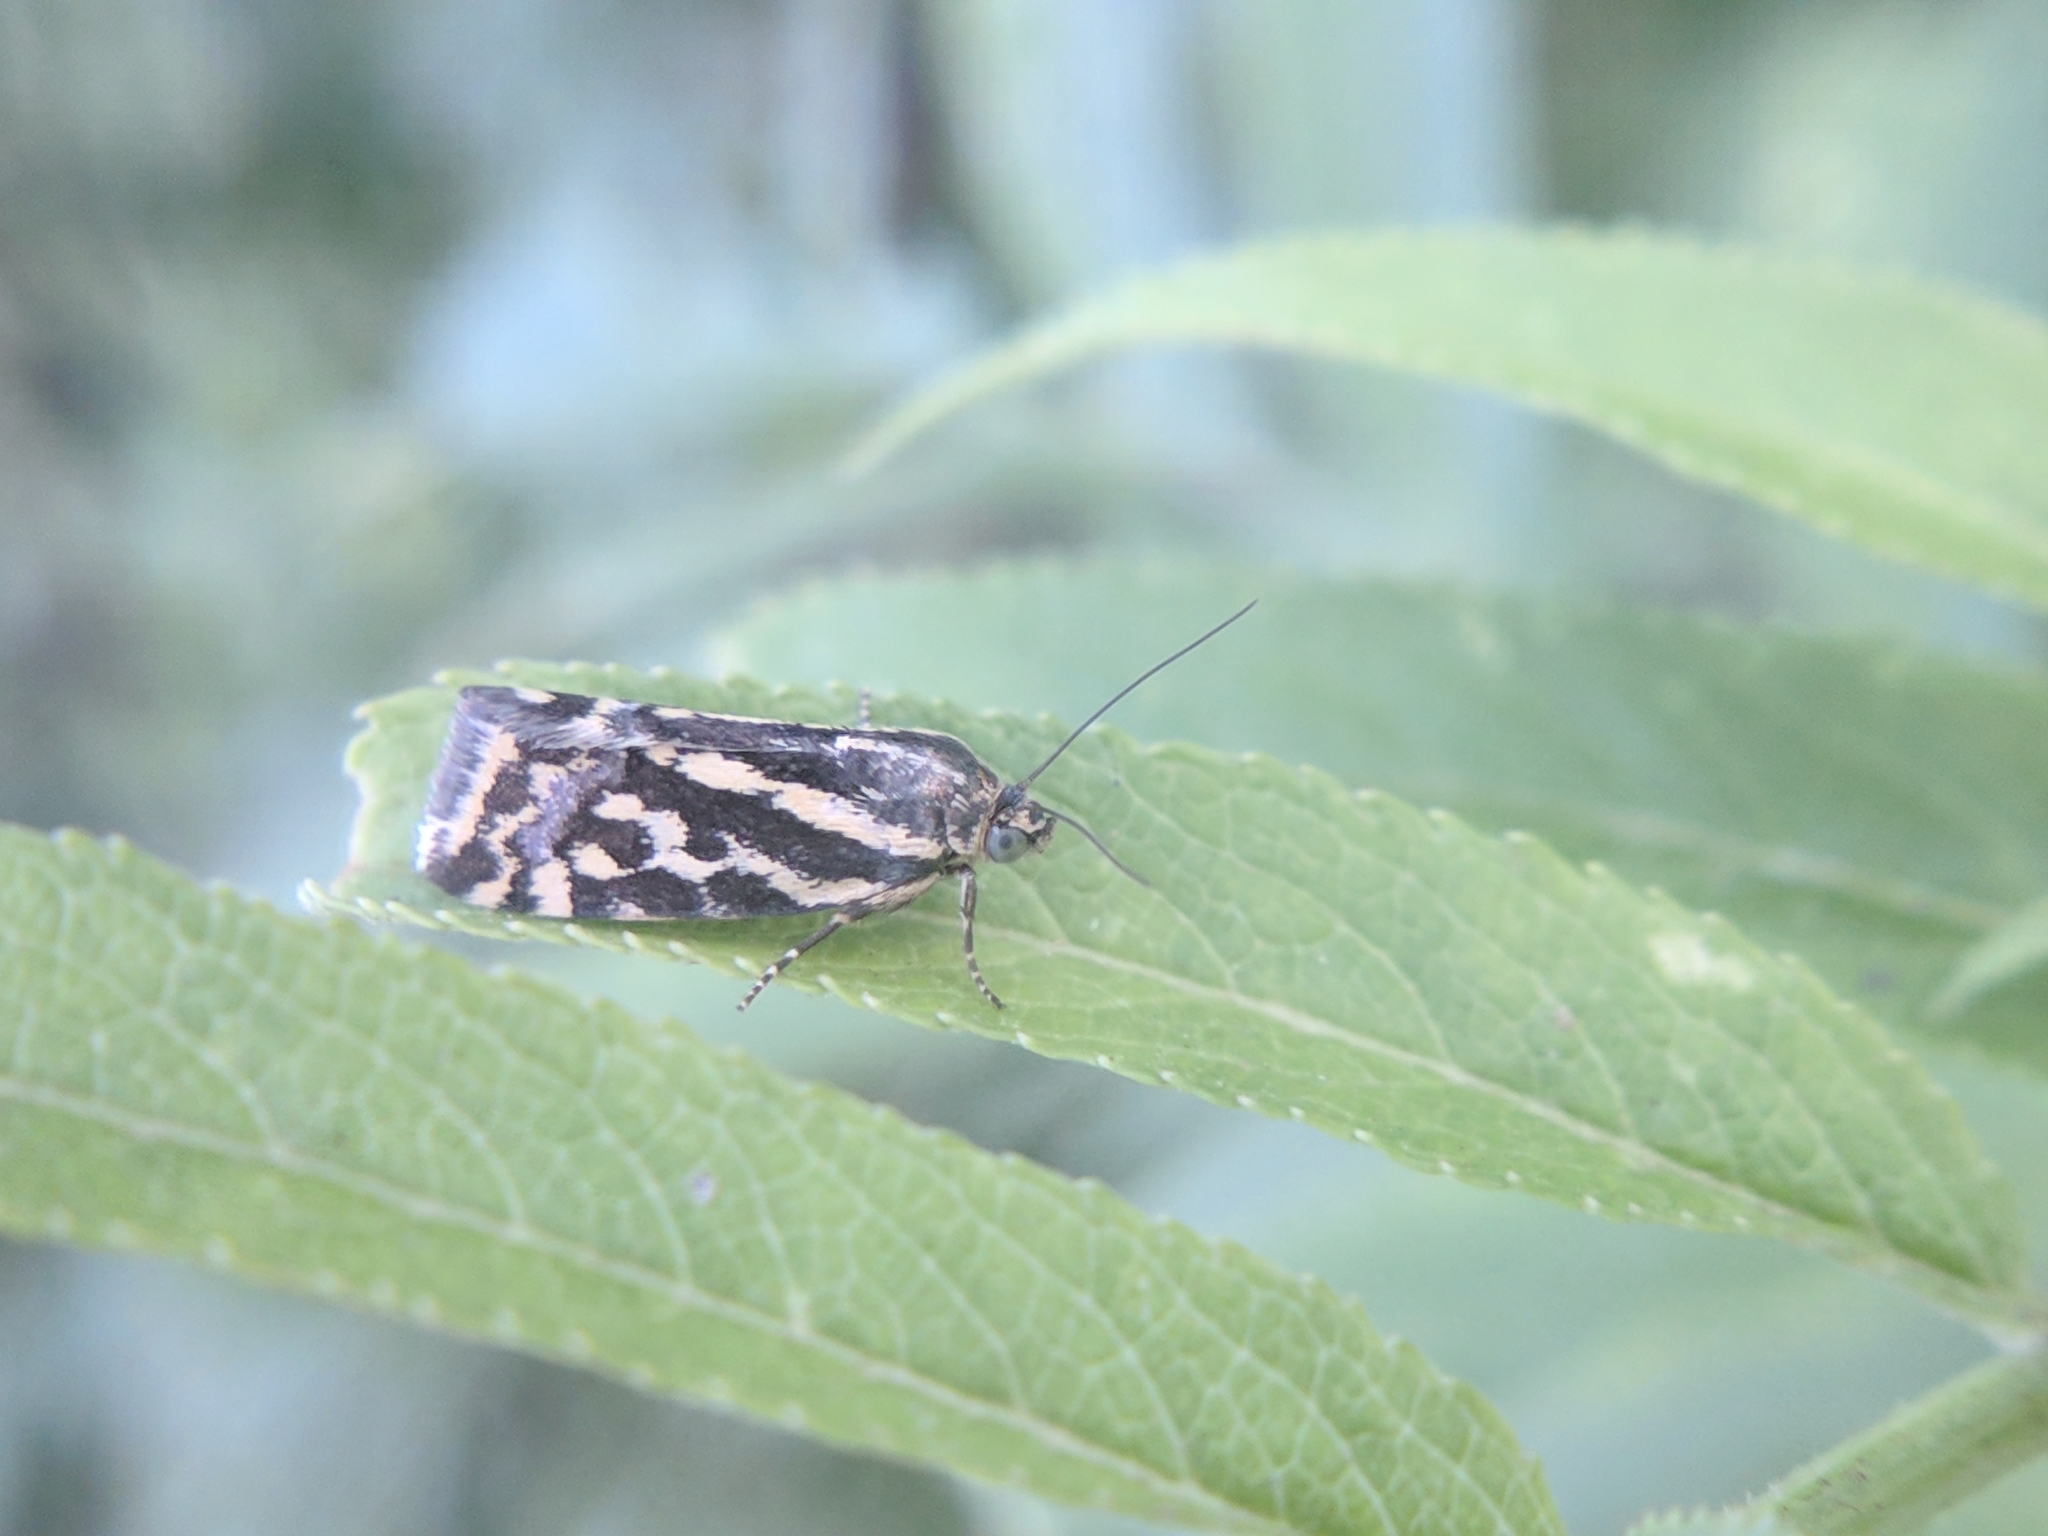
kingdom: Animalia
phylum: Arthropoda
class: Insecta
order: Lepidoptera
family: Noctuidae
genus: Acontia
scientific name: Acontia trabealis
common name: Spotted sulphur
